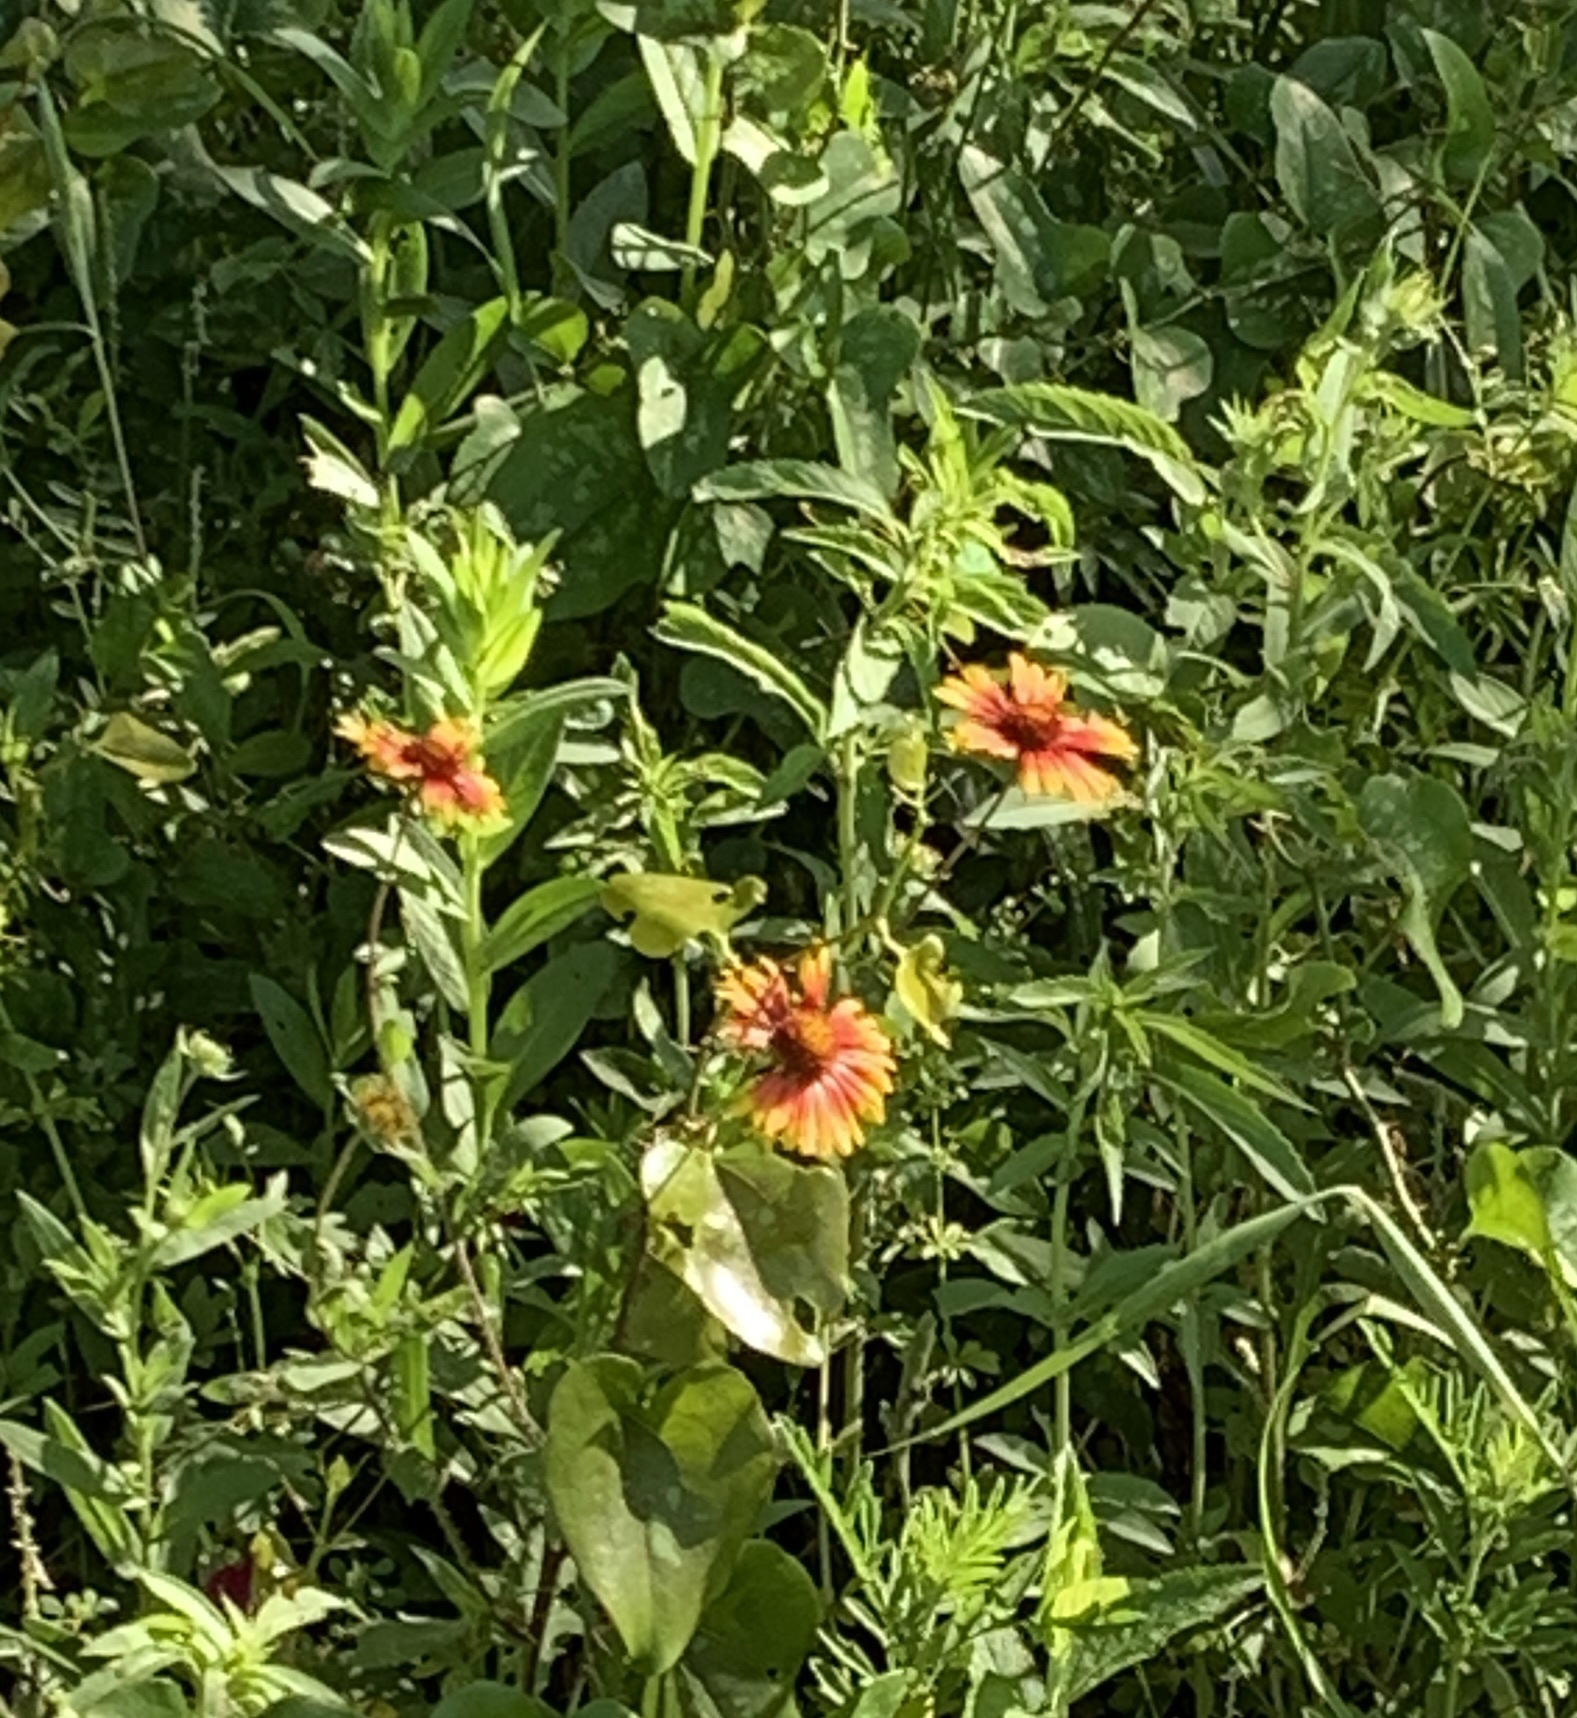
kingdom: Plantae
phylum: Tracheophyta
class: Magnoliopsida
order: Asterales
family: Asteraceae
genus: Gaillardia
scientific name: Gaillardia pulchella
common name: Firewheel
